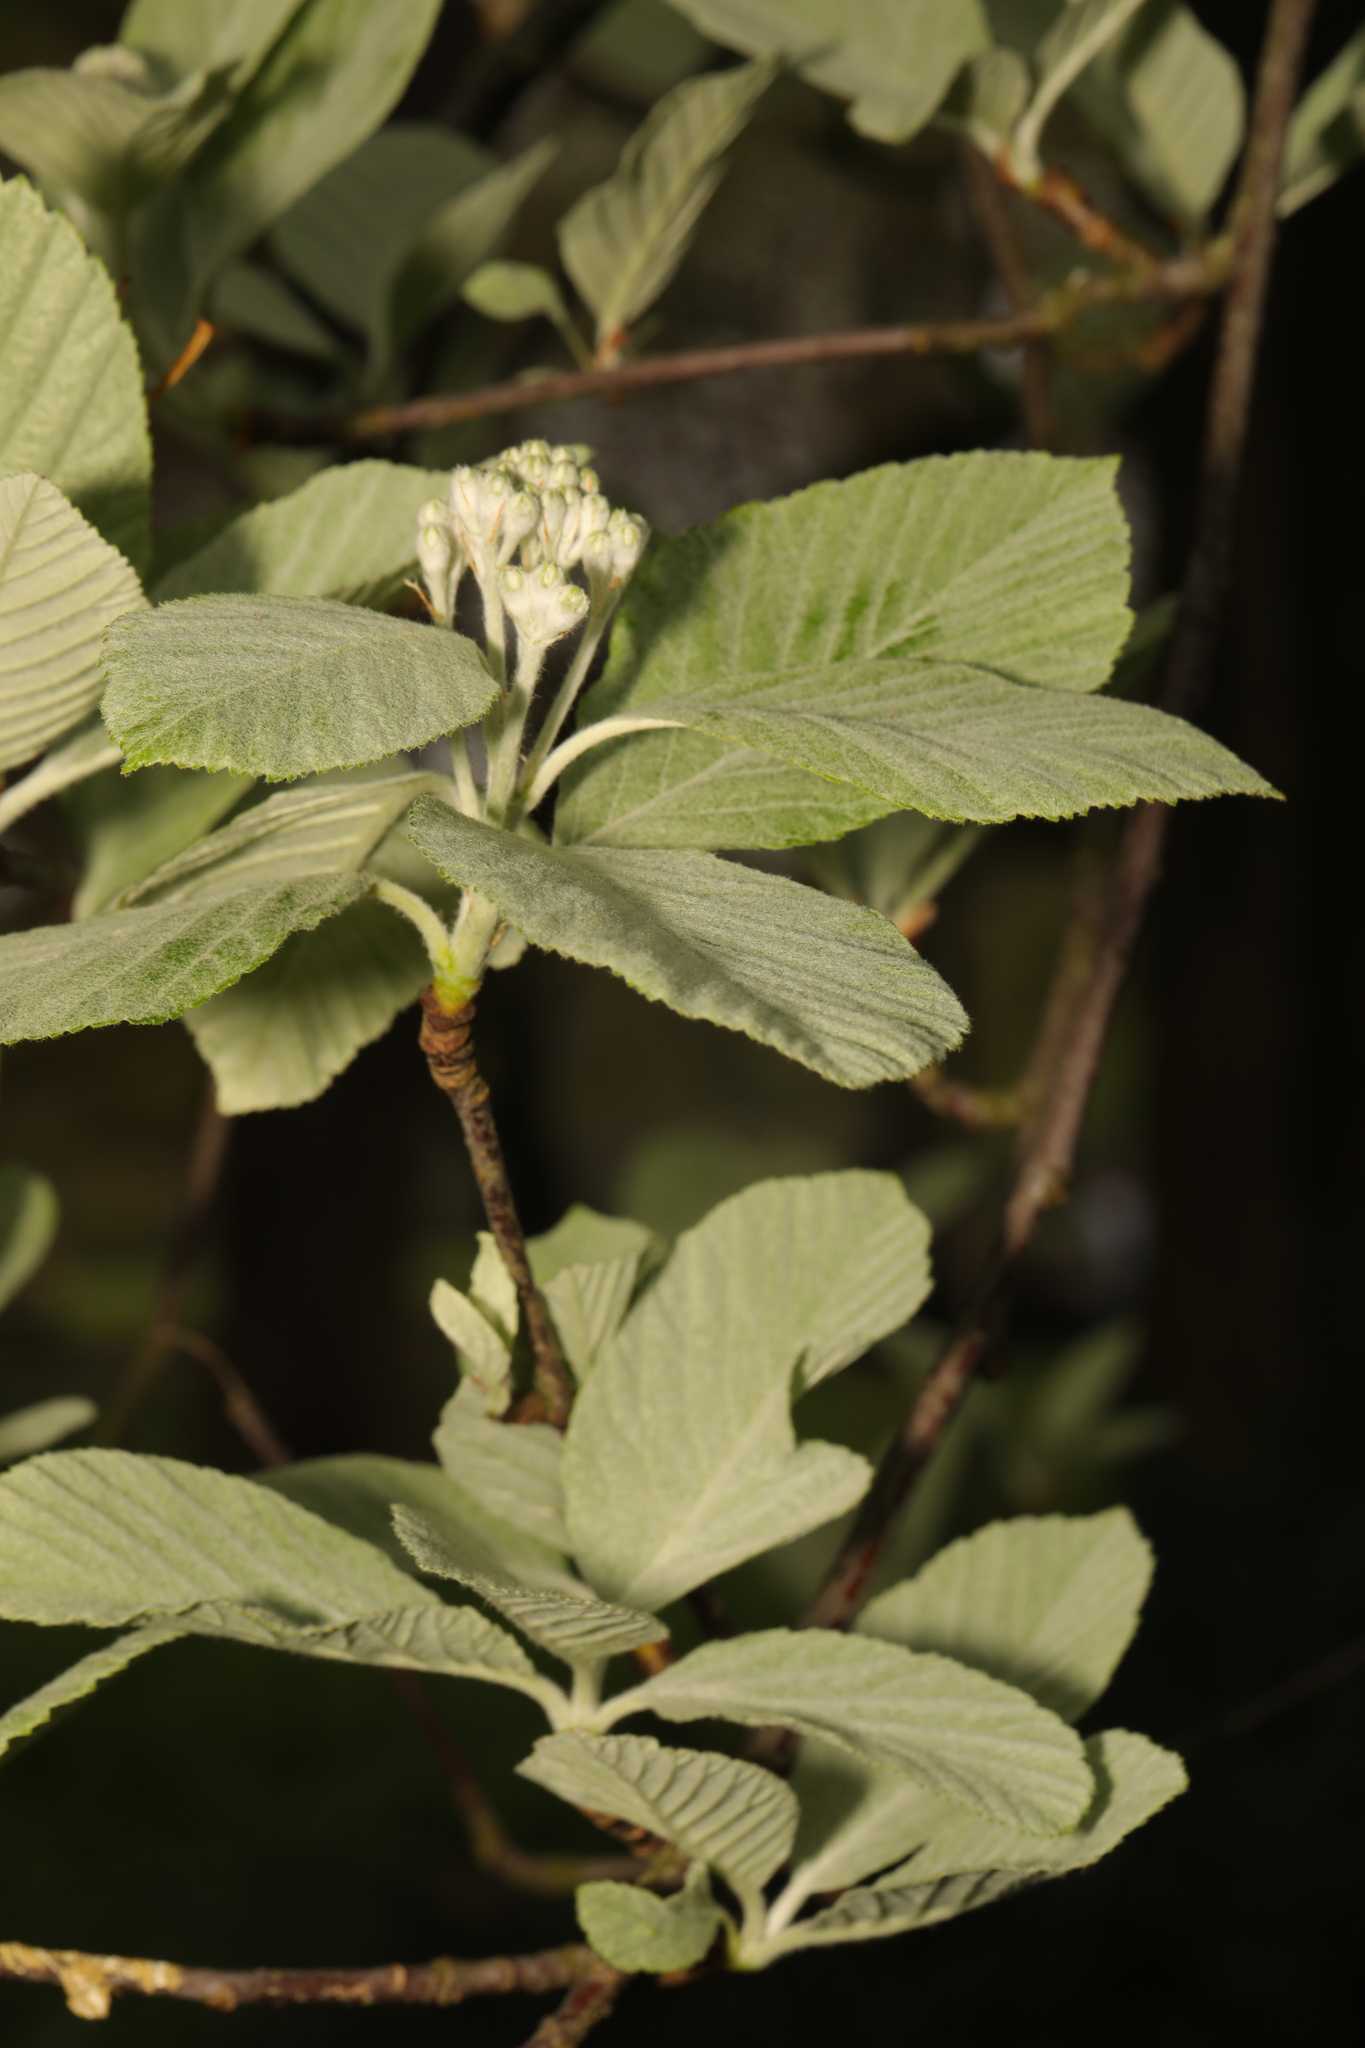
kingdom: Plantae
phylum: Tracheophyta
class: Magnoliopsida
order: Rosales
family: Rosaceae
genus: Aria
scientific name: Aria edulis
